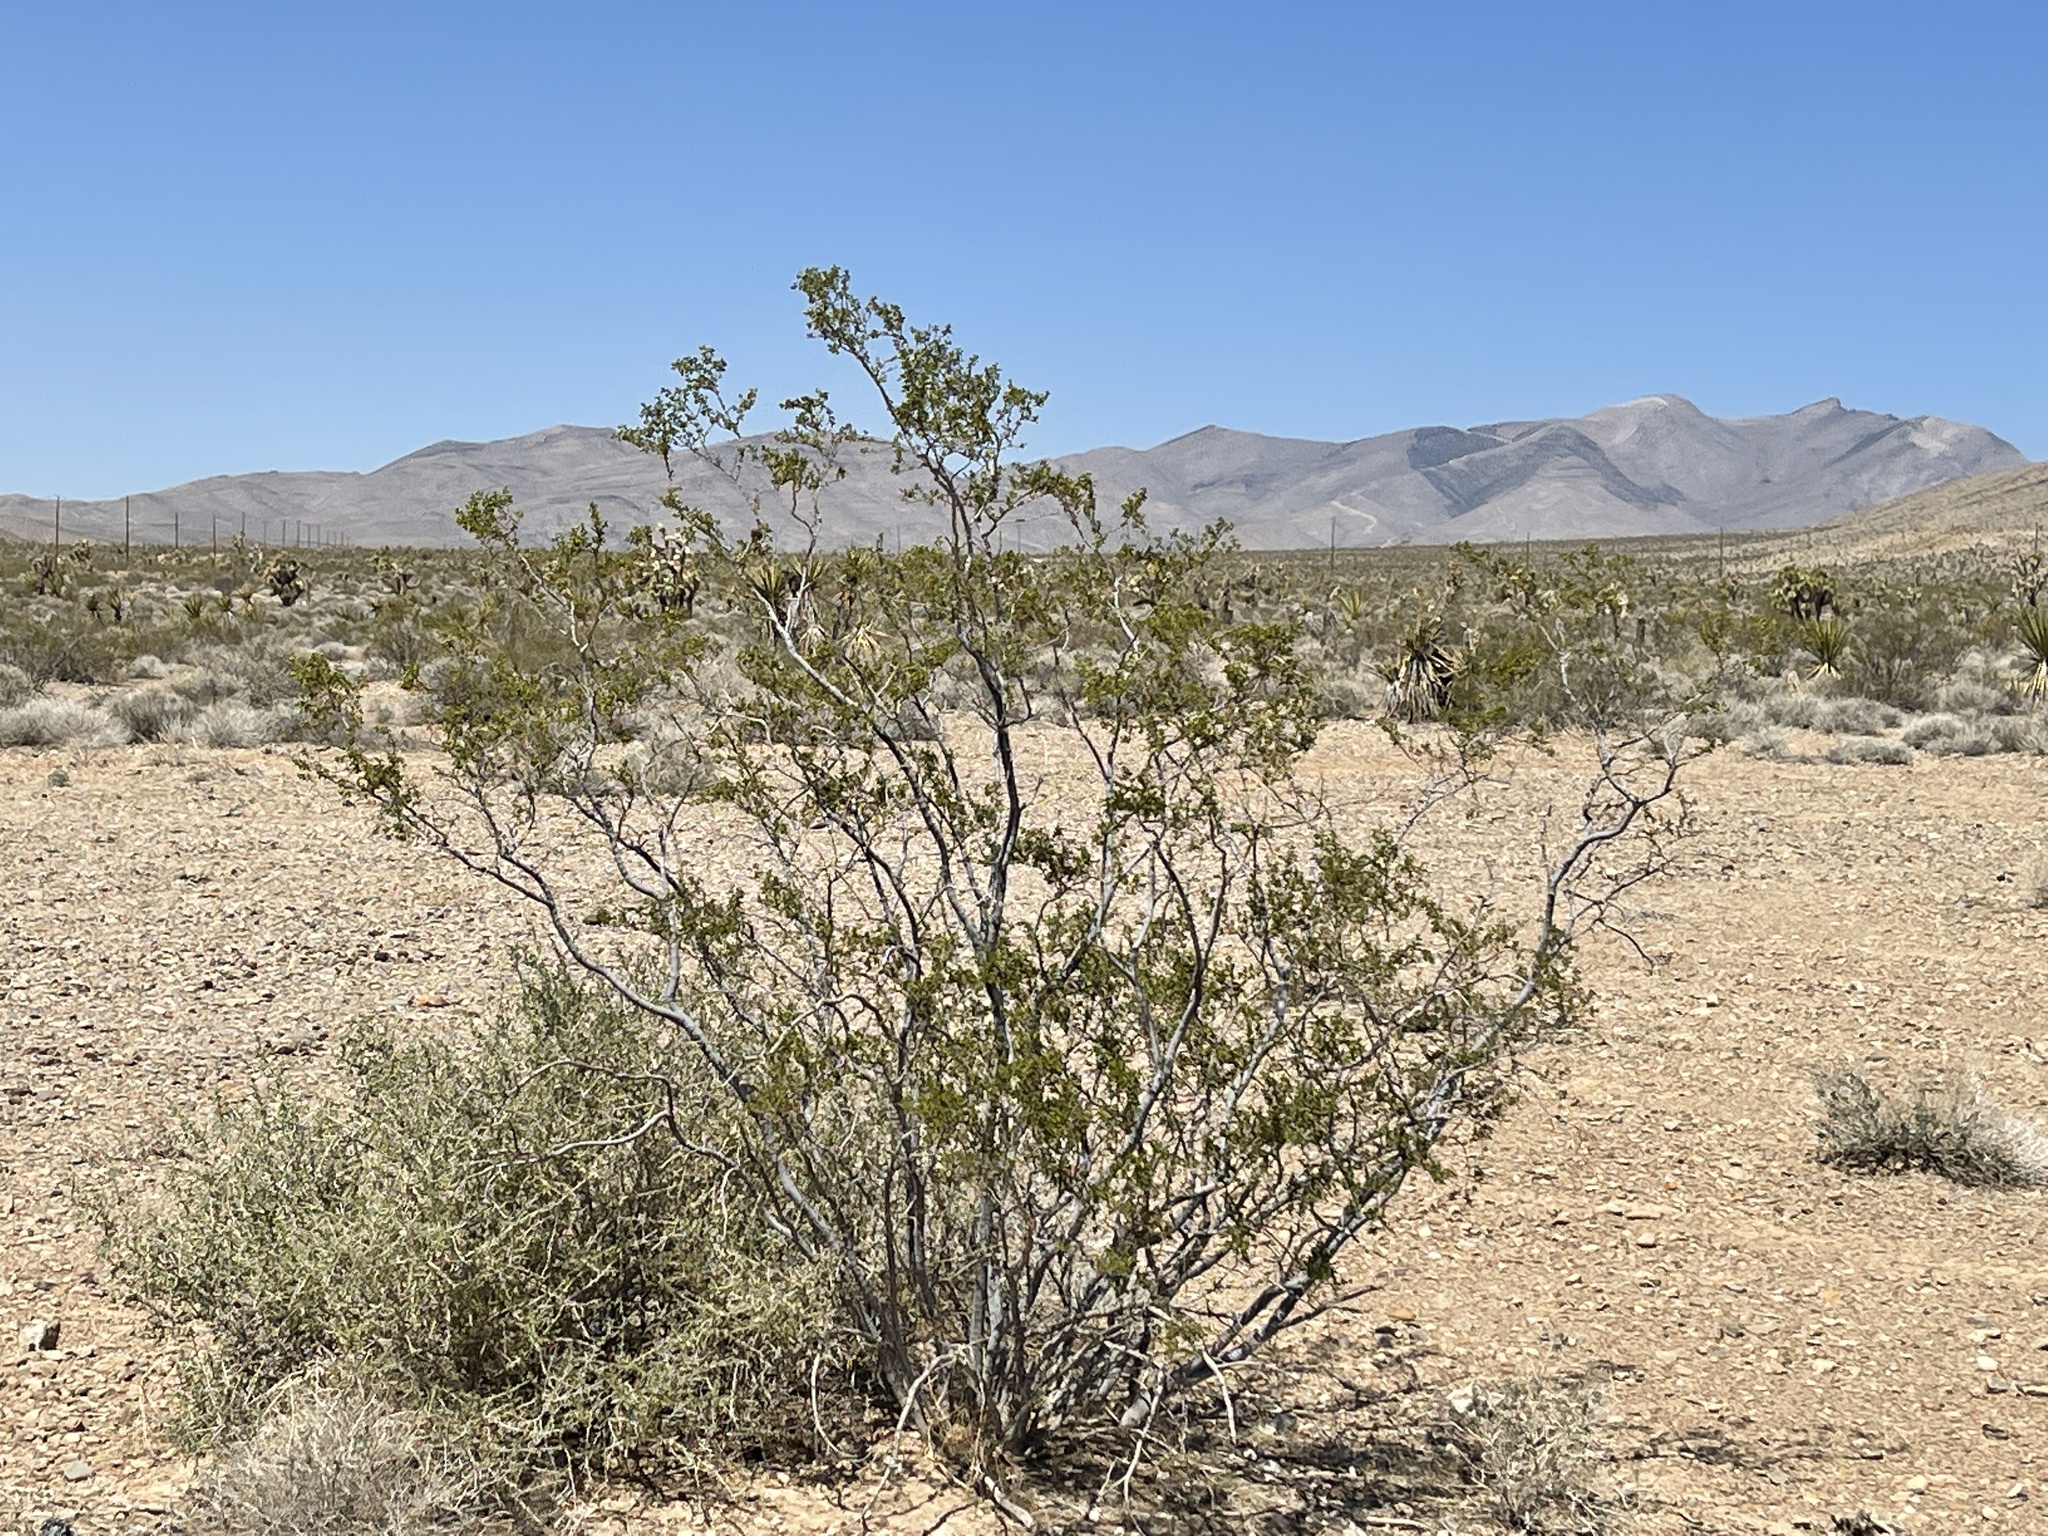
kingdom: Plantae
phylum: Tracheophyta
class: Magnoliopsida
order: Zygophyllales
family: Zygophyllaceae
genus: Larrea
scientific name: Larrea tridentata
